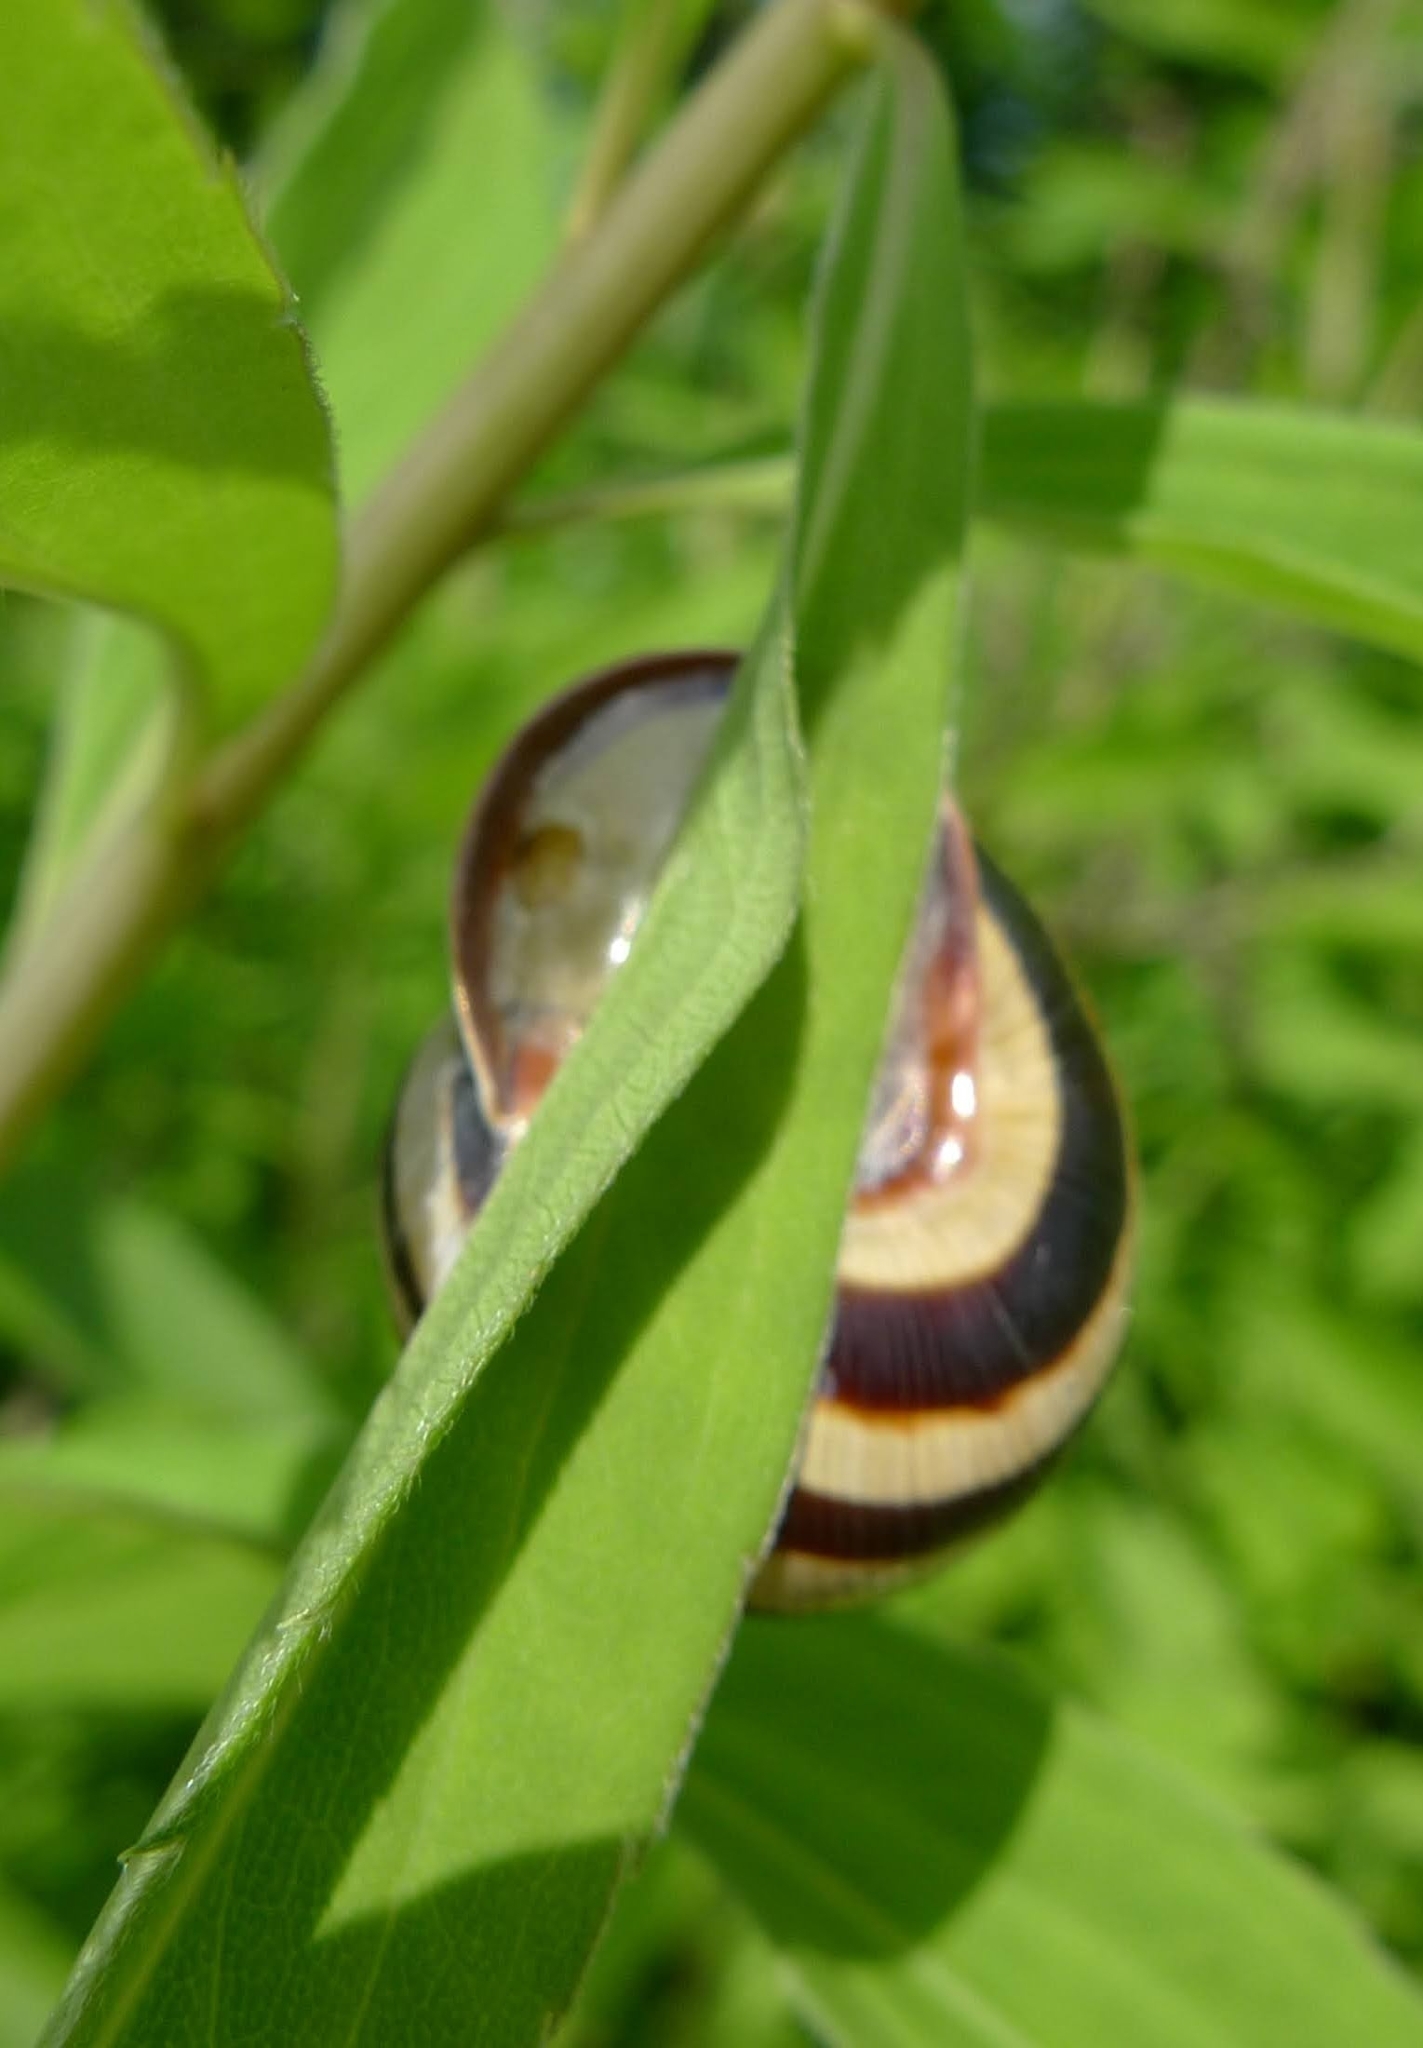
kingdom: Animalia
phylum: Mollusca
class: Gastropoda
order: Stylommatophora
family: Helicidae
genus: Caucasotachea
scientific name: Caucasotachea vindobonensis
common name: European helicid land snail
